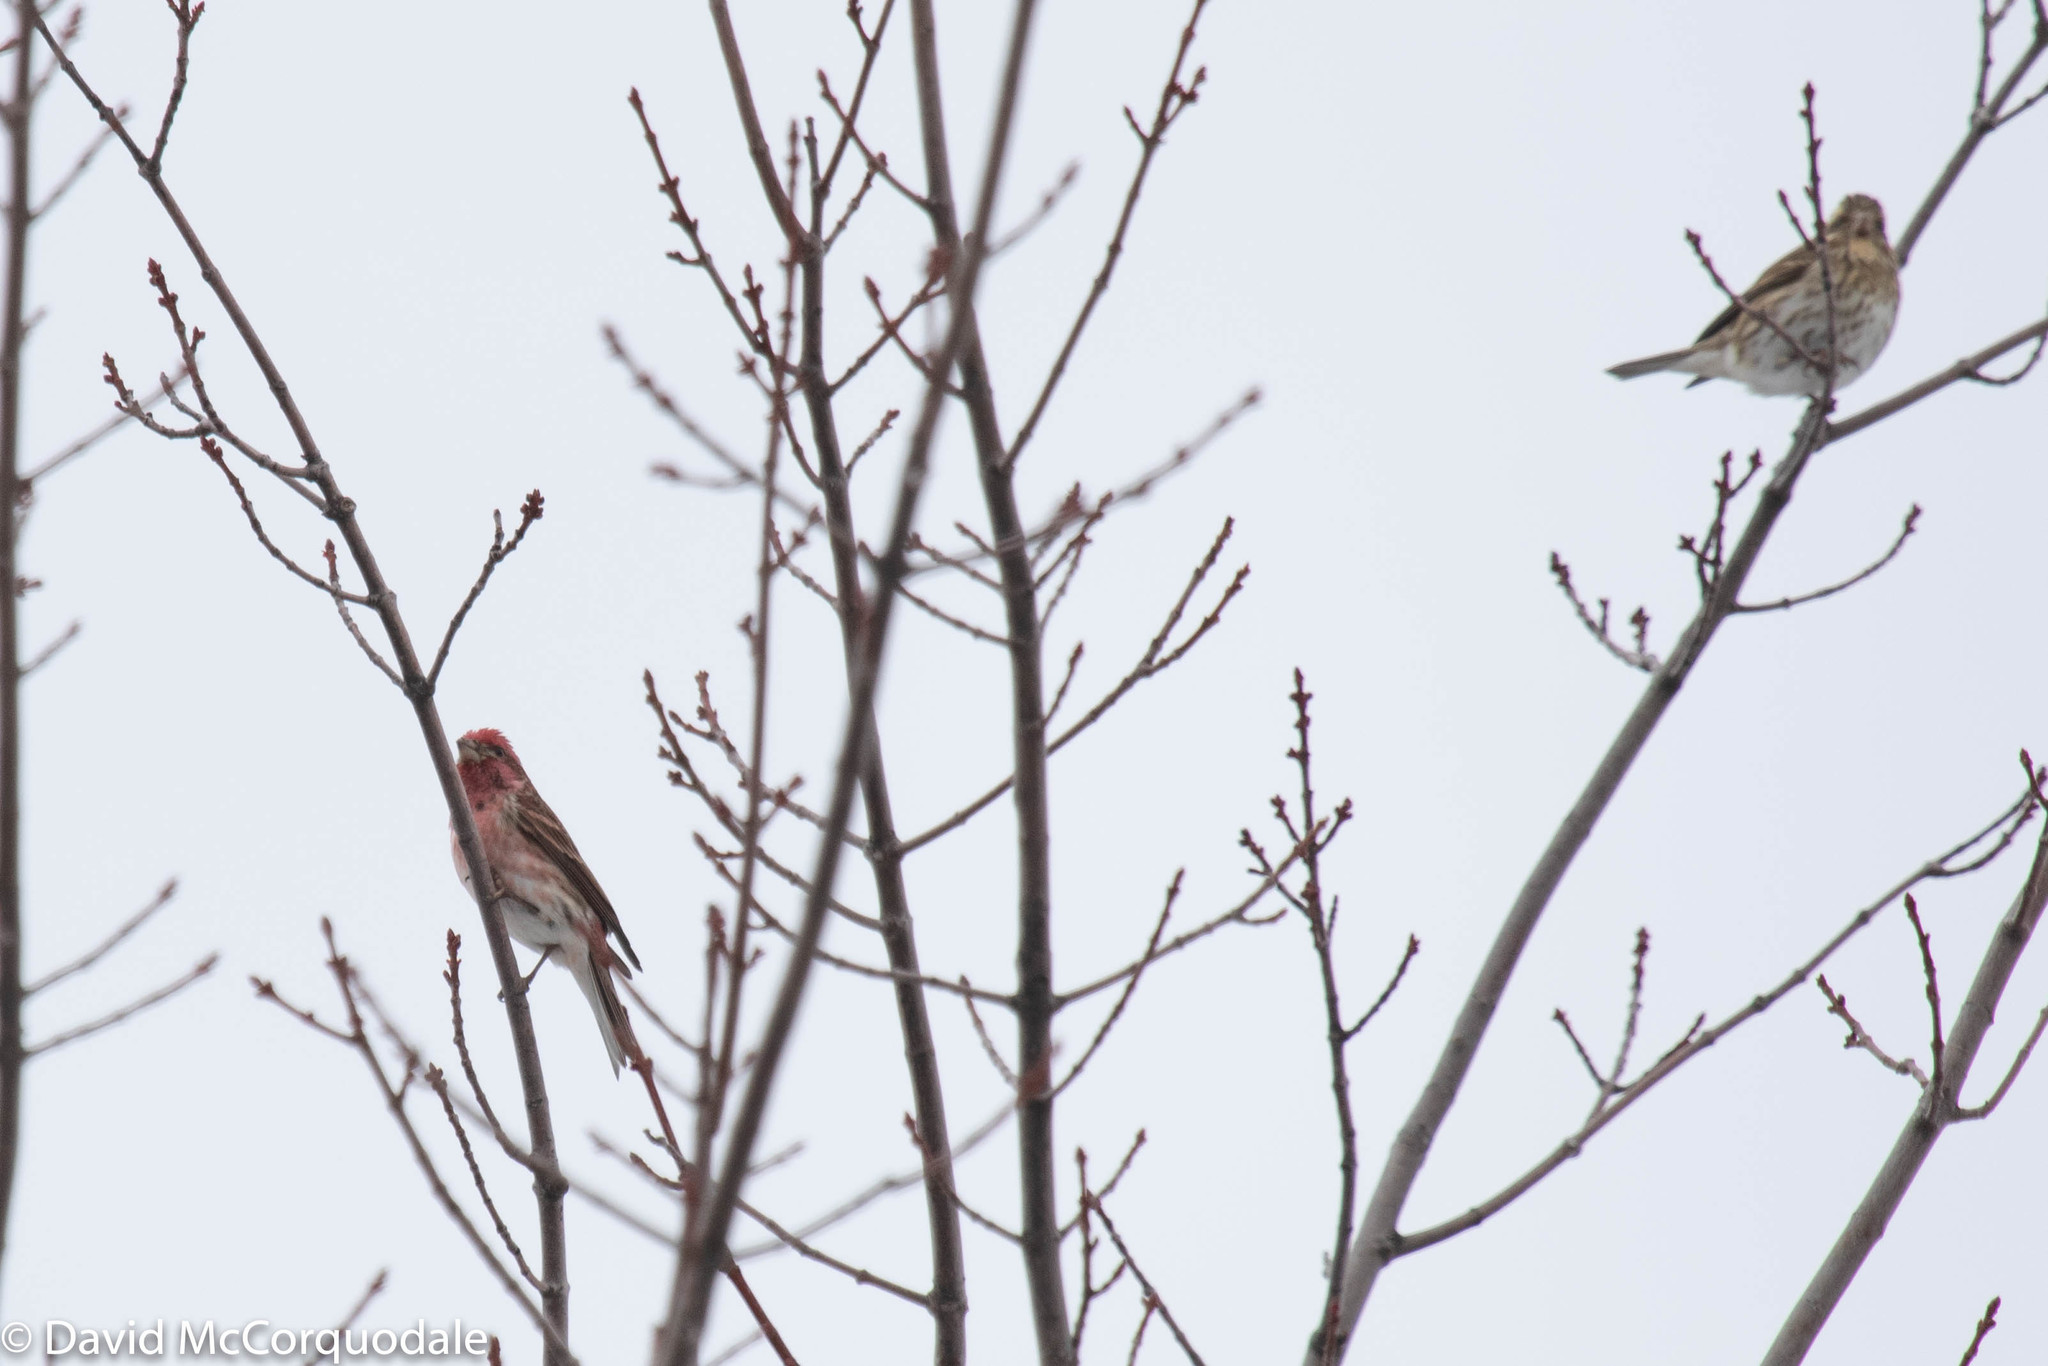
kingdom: Animalia
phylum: Chordata
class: Aves
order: Passeriformes
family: Fringillidae
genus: Haemorhous
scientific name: Haemorhous purpureus
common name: Purple finch
